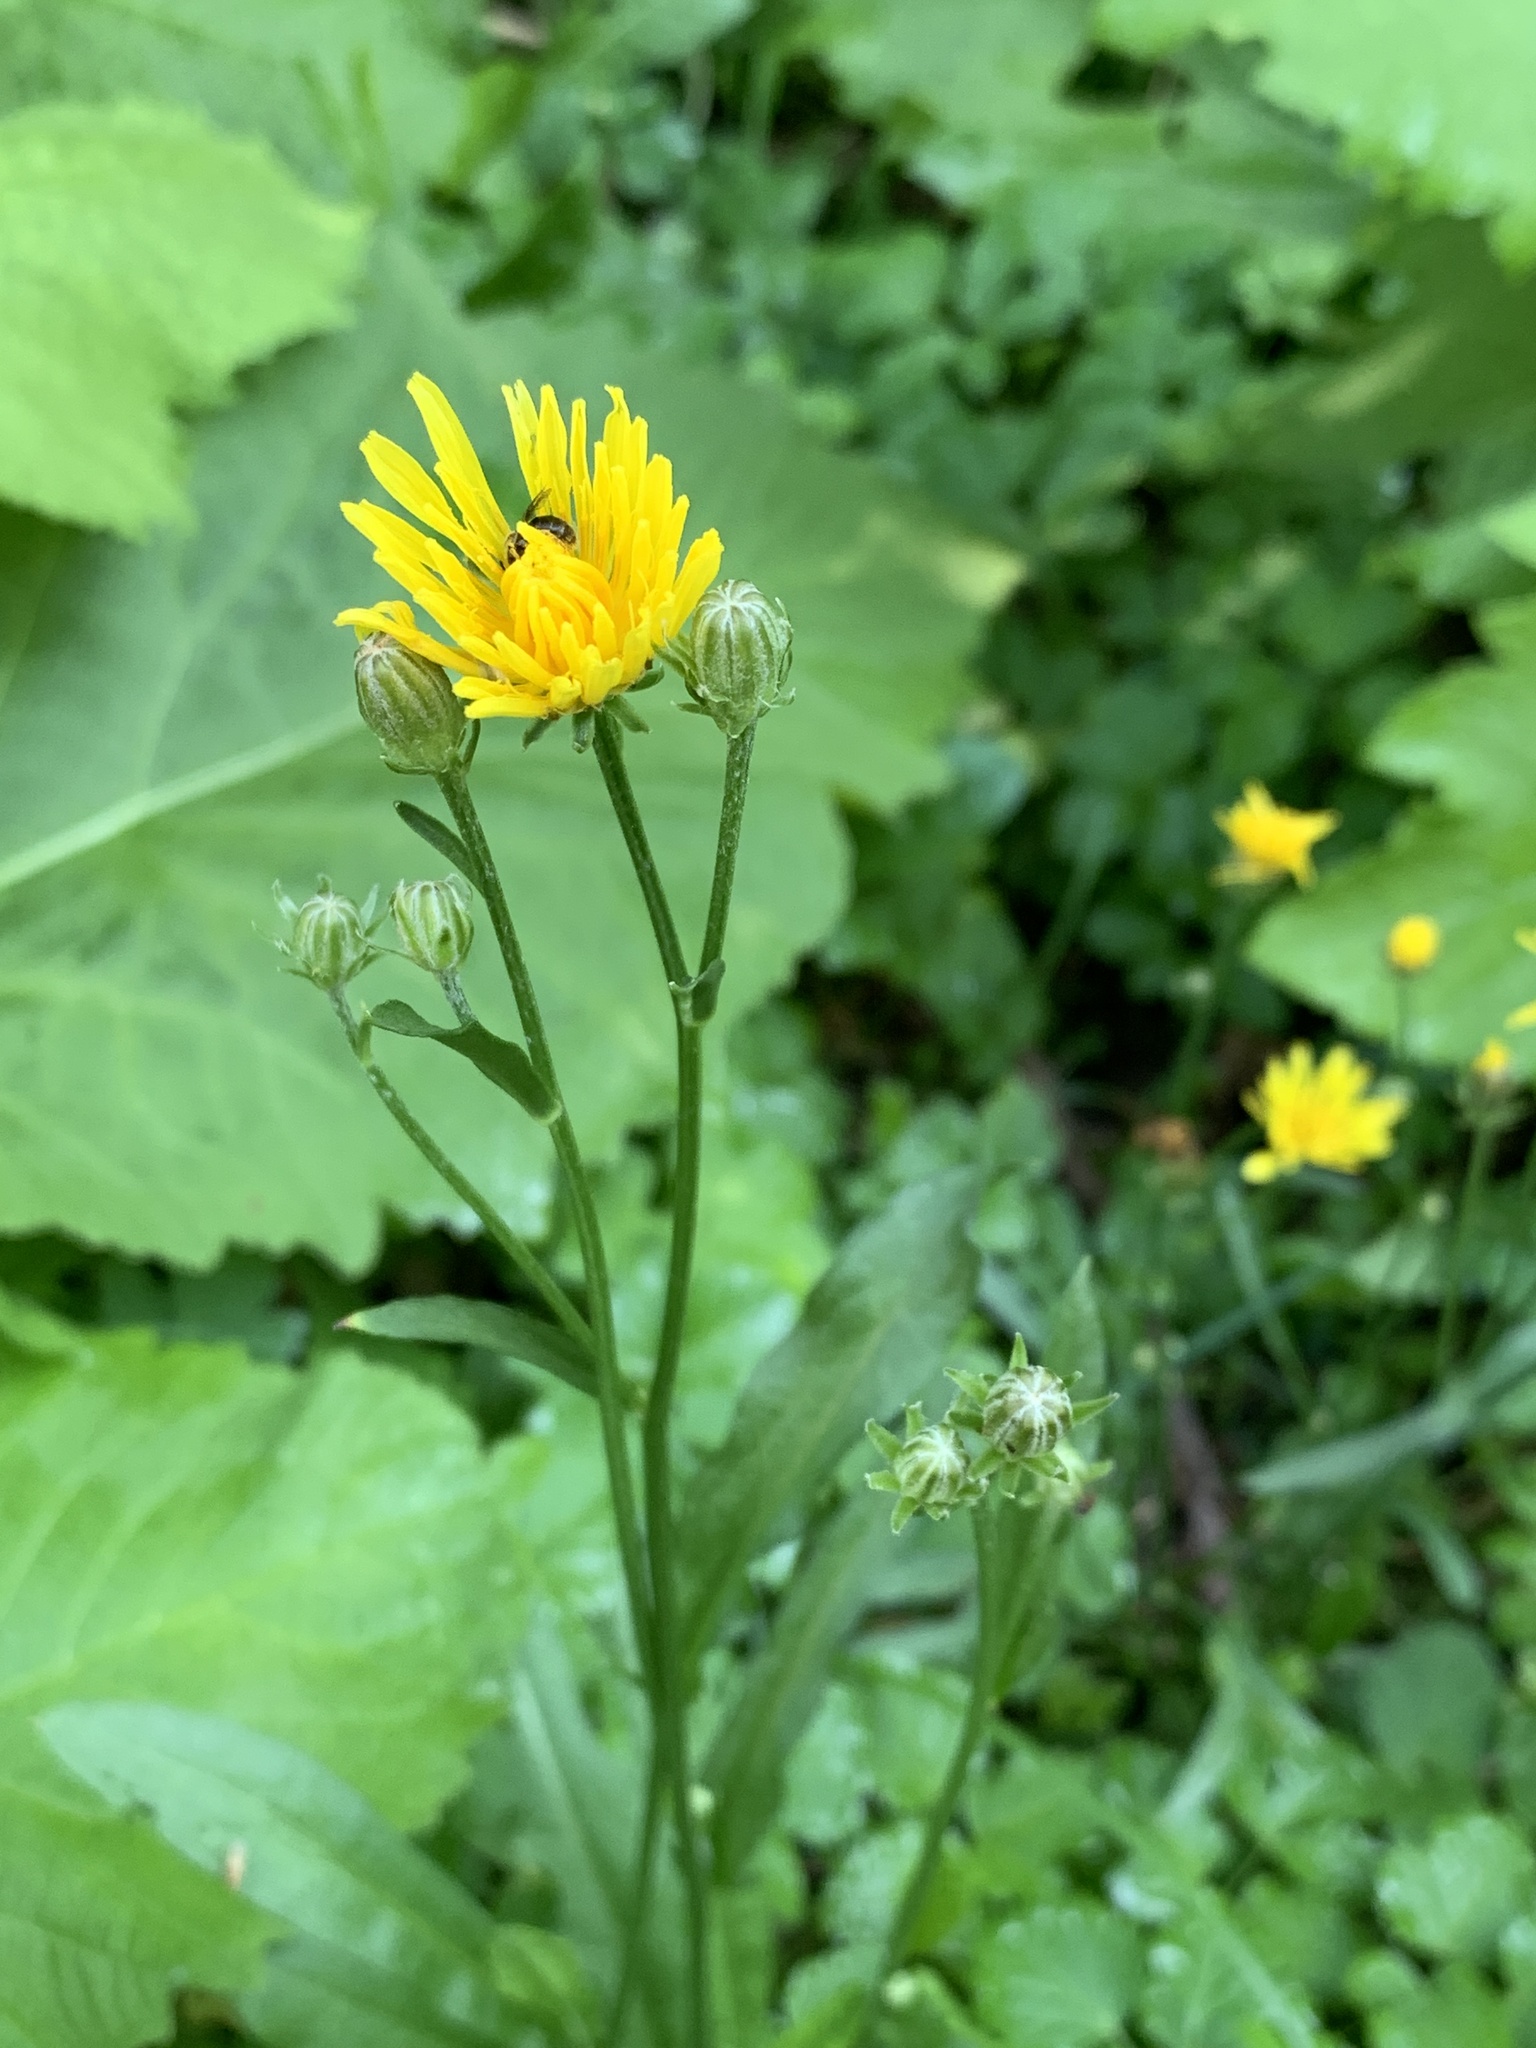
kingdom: Plantae
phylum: Tracheophyta
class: Magnoliopsida
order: Asterales
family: Asteraceae
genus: Crepis
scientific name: Crepis biennis
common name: Rough hawk's-beard
